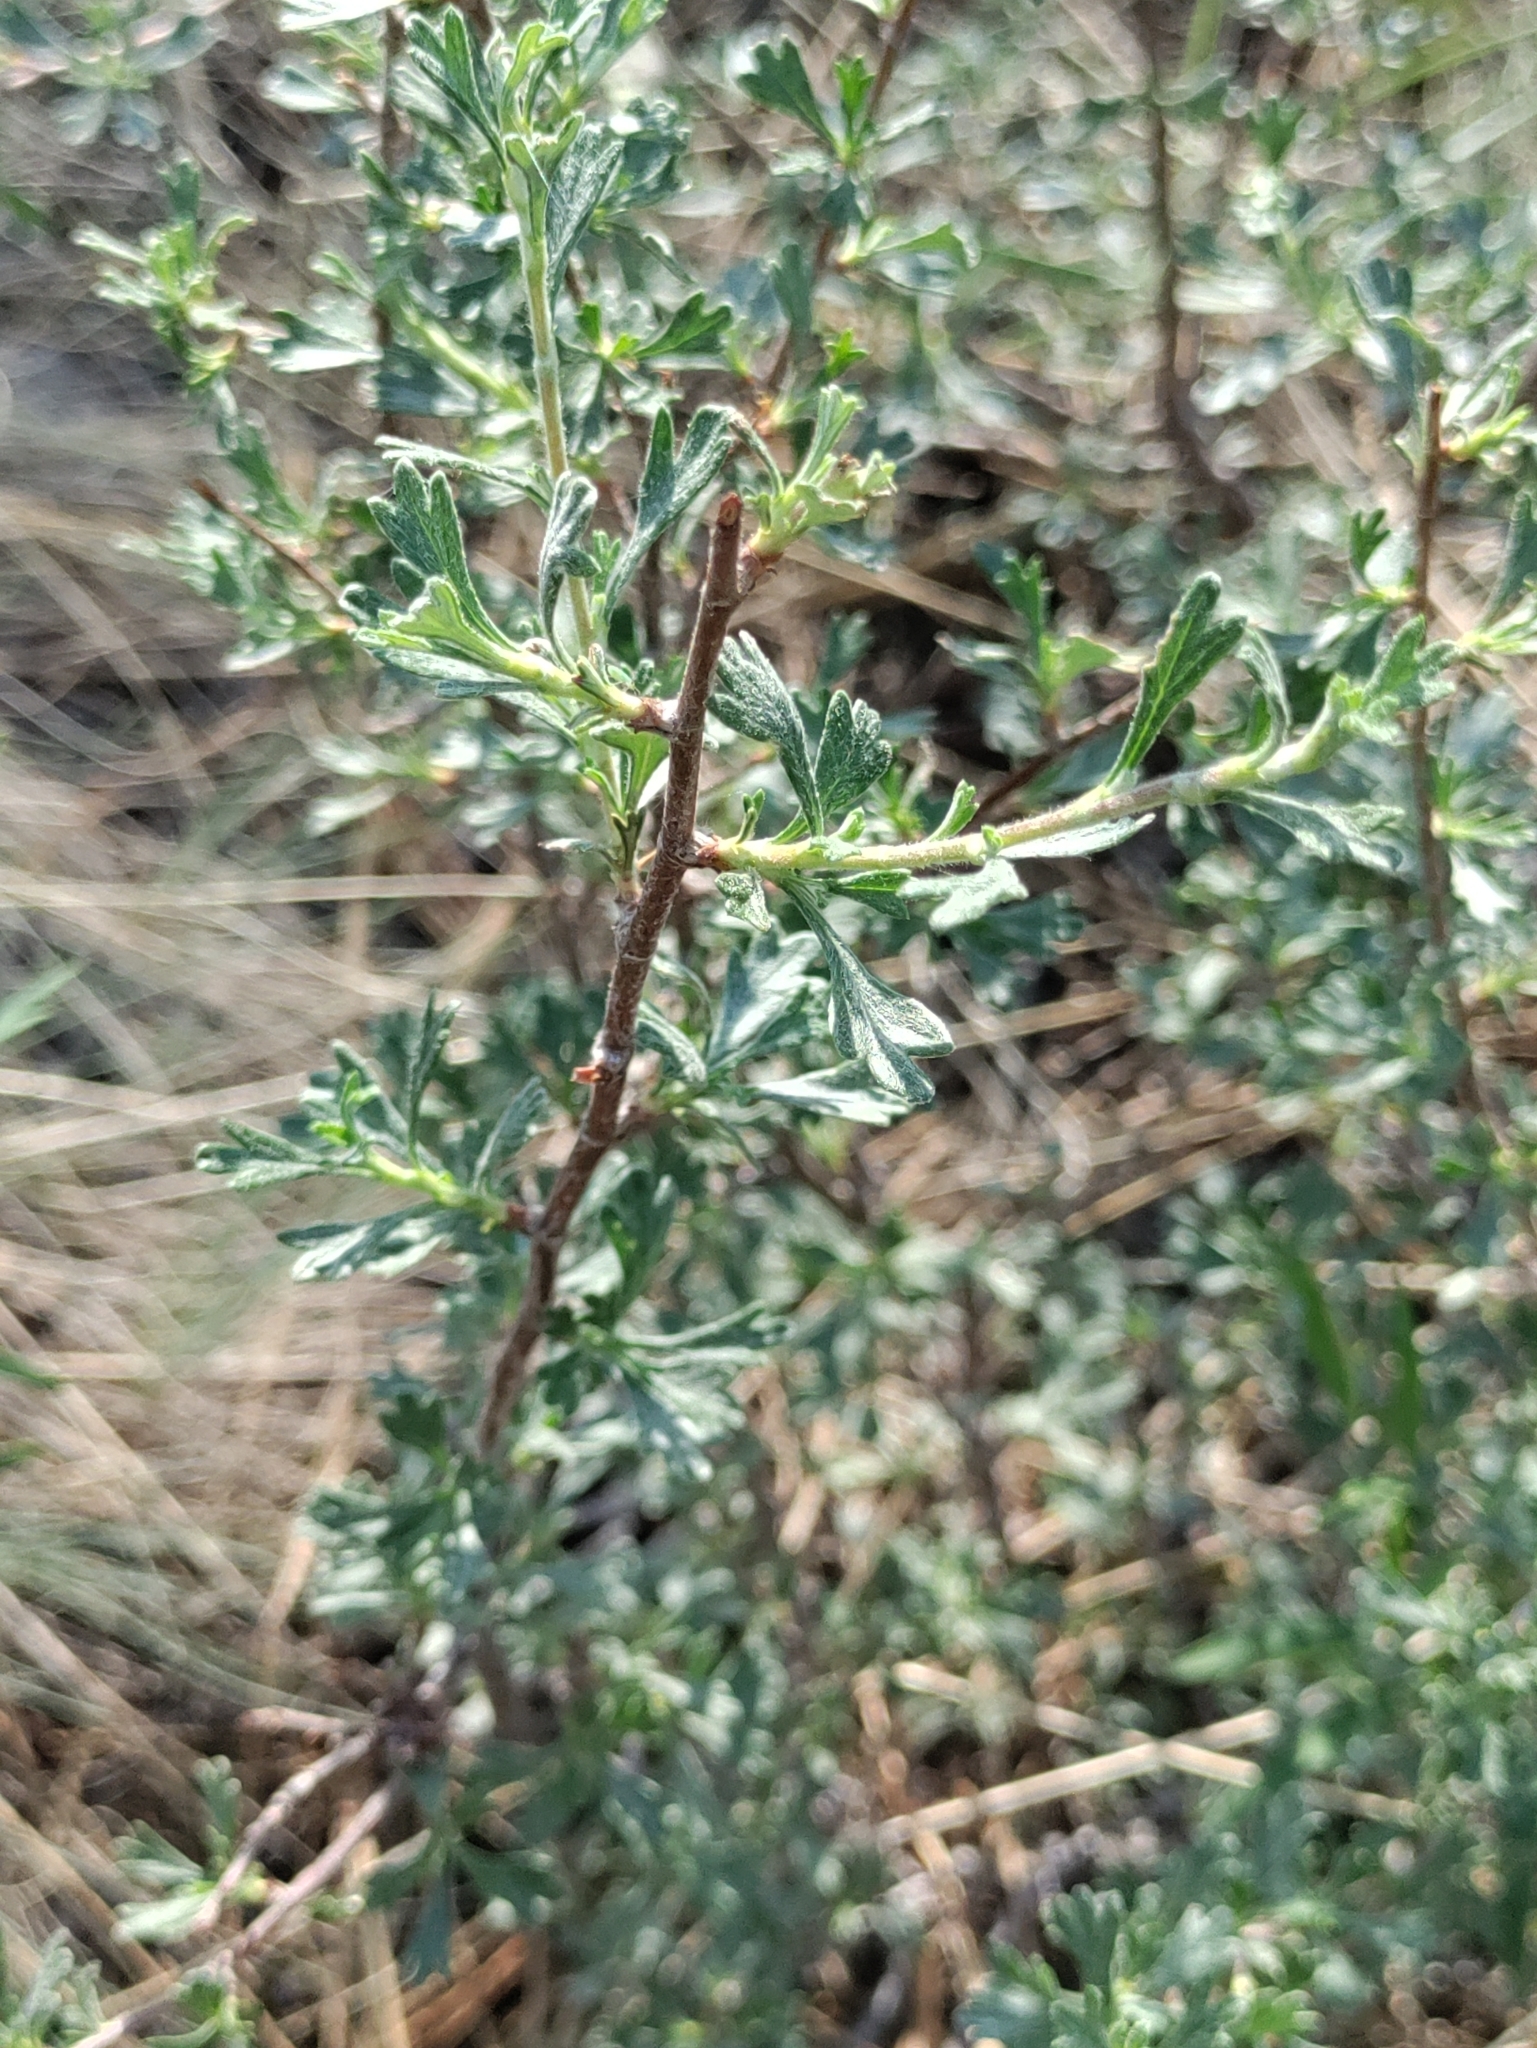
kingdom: Plantae
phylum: Tracheophyta
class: Magnoliopsida
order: Rosales
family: Rosaceae
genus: Purshia
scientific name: Purshia tridentata
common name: Antelope bitterbrush
